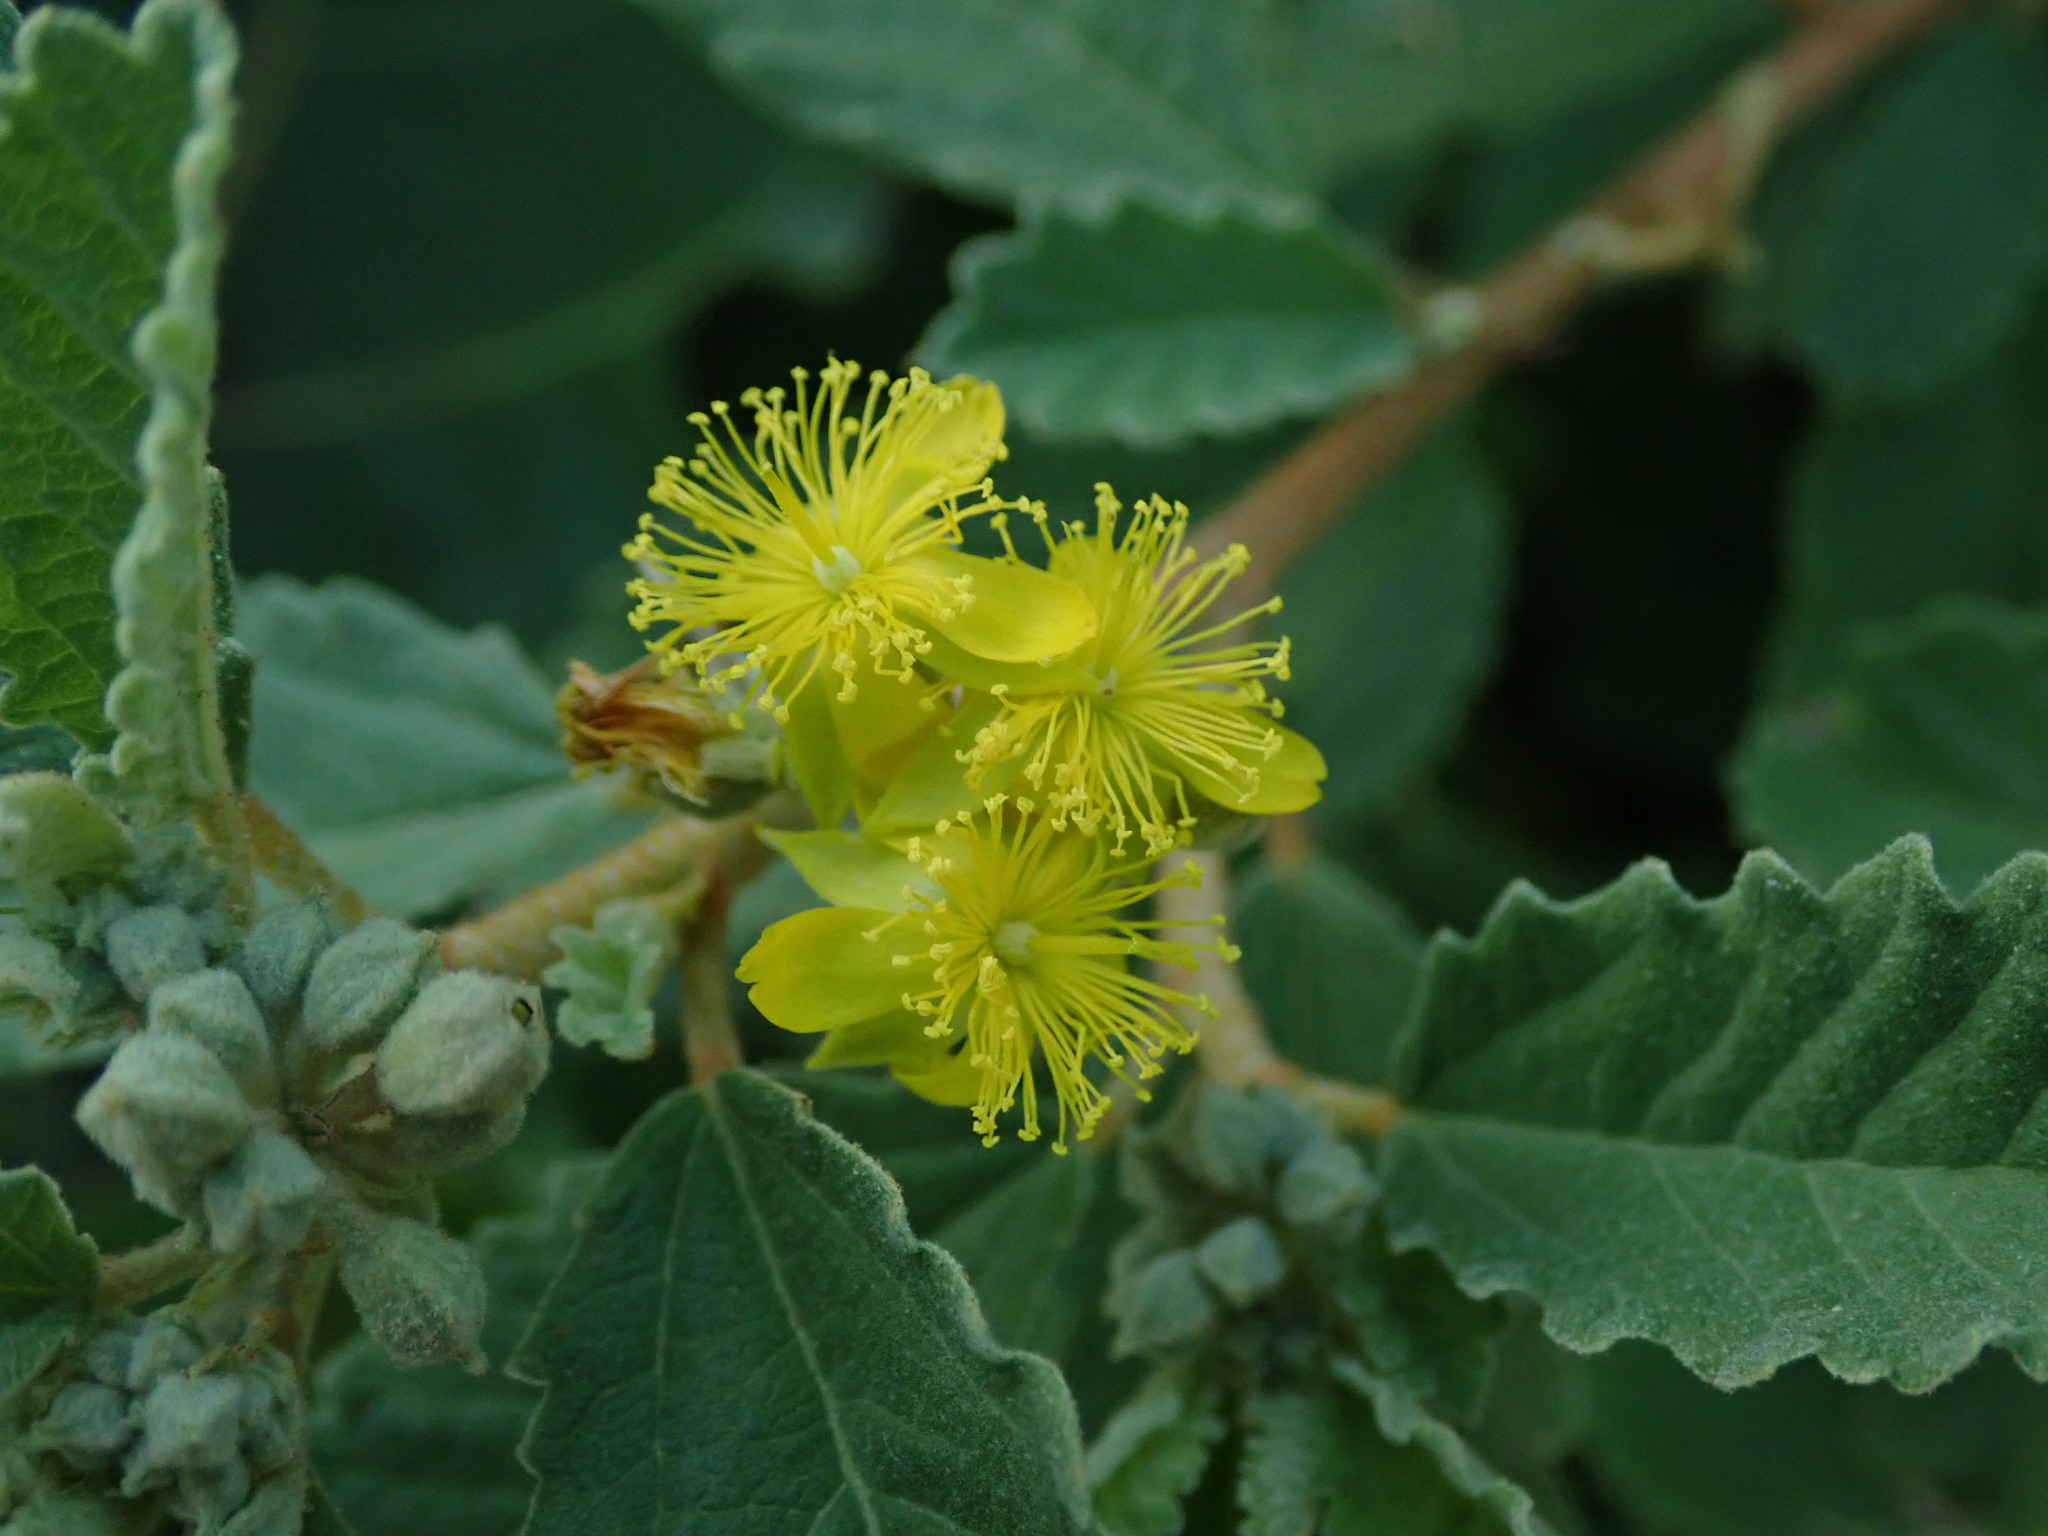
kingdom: Plantae
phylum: Tracheophyta
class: Magnoliopsida
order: Malvales
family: Malvaceae
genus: Corchorus
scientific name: Corchorus hirsutus
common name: Jackswitch
